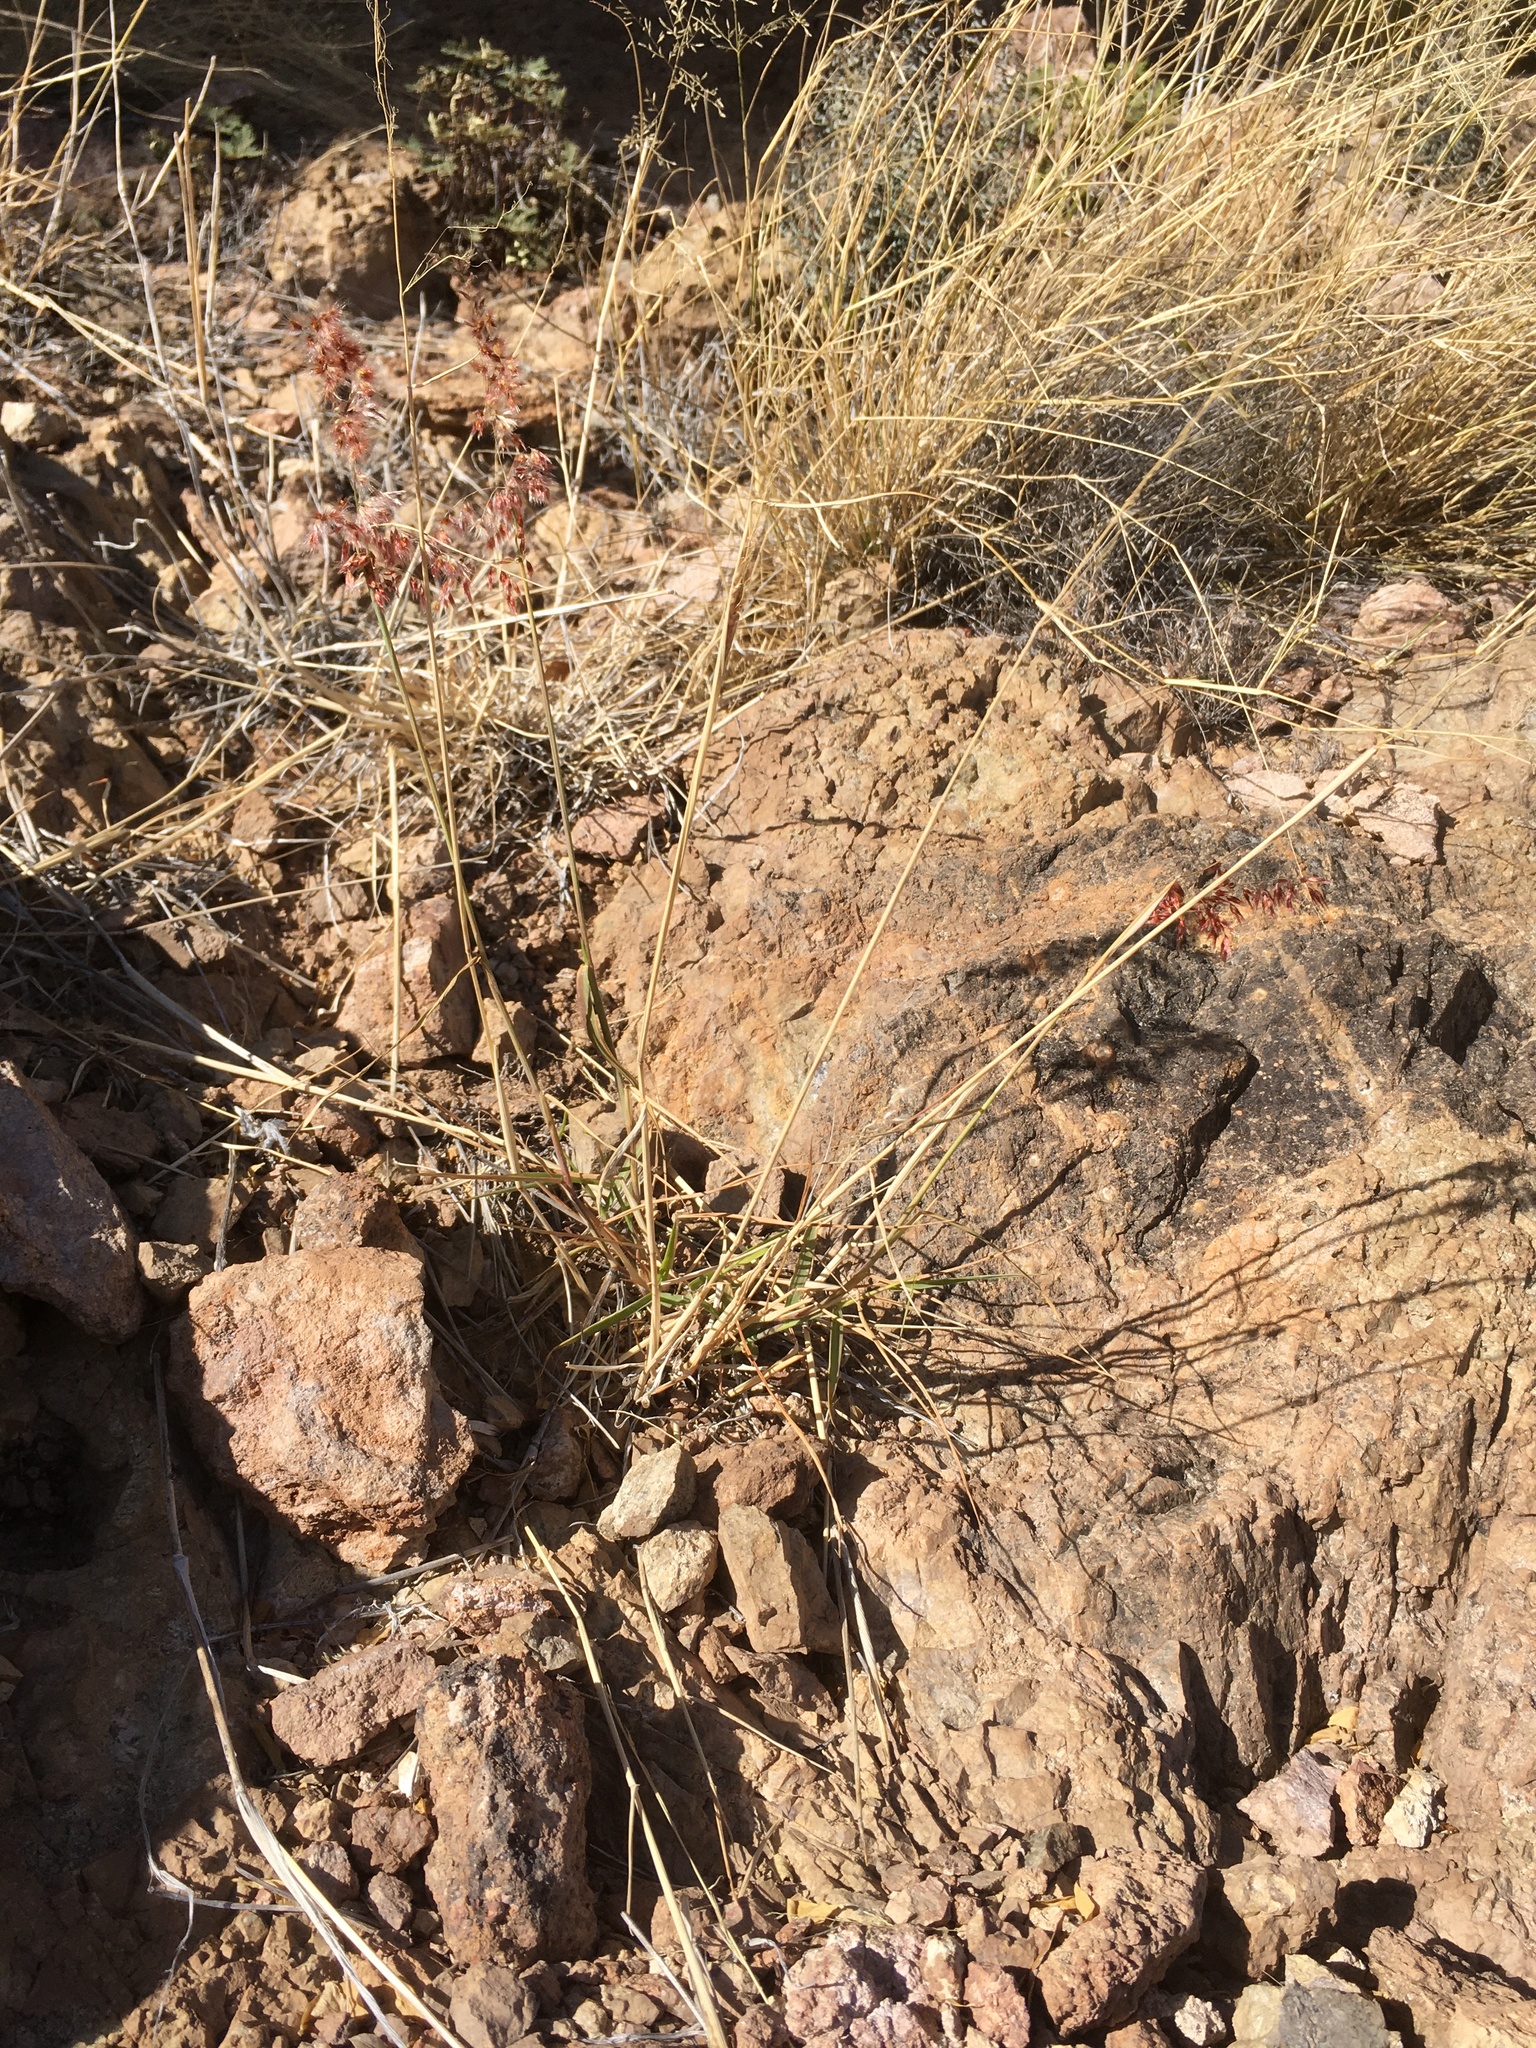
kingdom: Plantae
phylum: Tracheophyta
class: Liliopsida
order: Poales
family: Poaceae
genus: Melinis
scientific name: Melinis repens
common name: Rose natal grass
